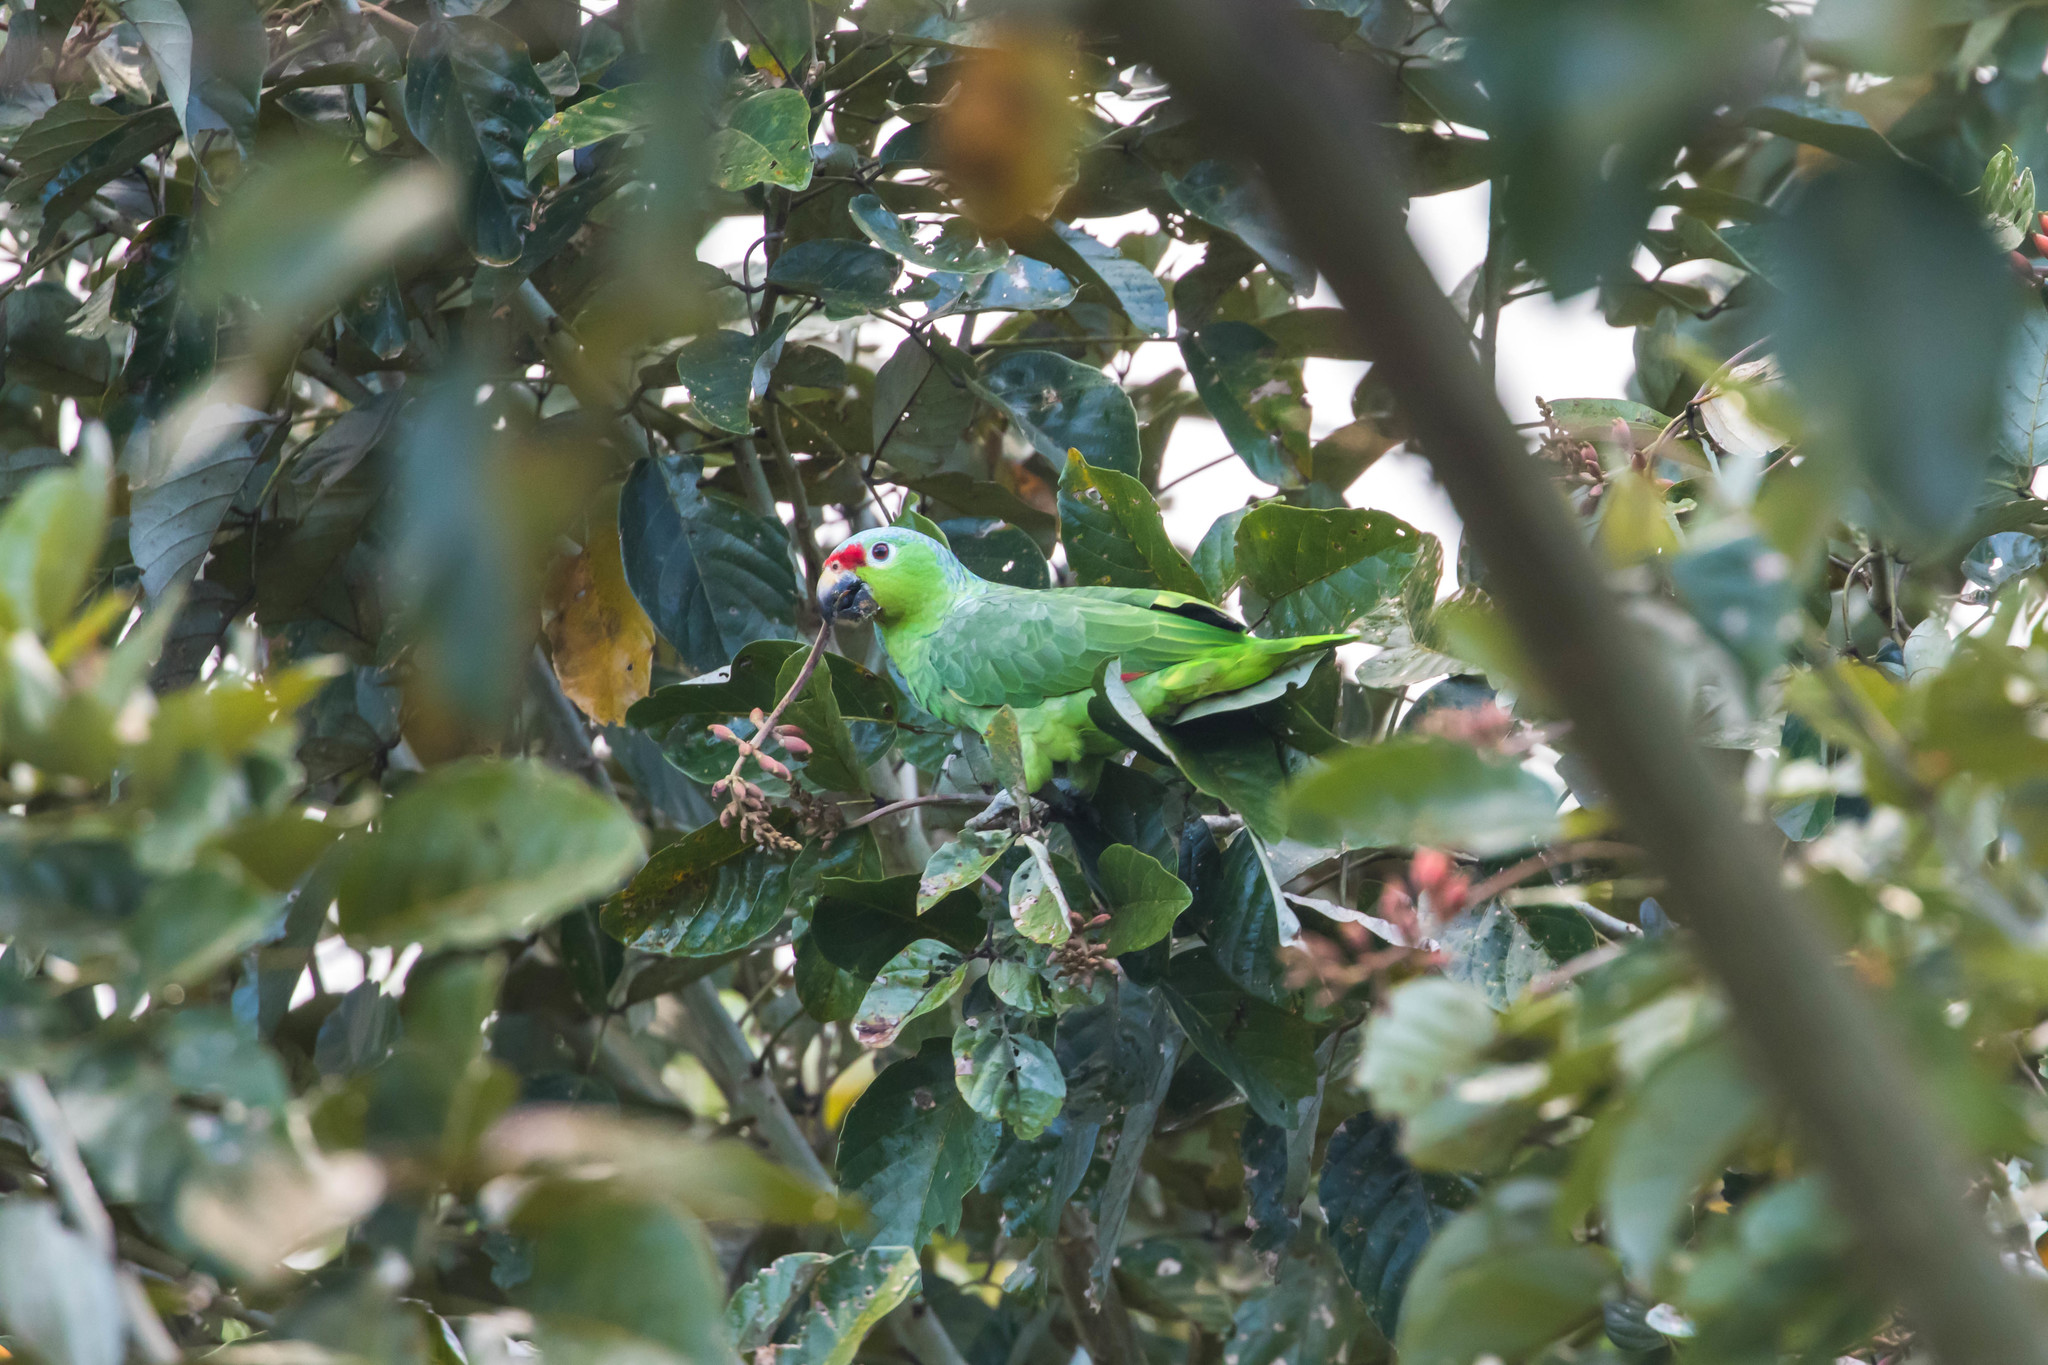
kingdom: Animalia
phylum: Chordata
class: Aves
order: Psittaciformes
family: Psittacidae
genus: Amazona
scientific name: Amazona autumnalis
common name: Red-lored amazon
